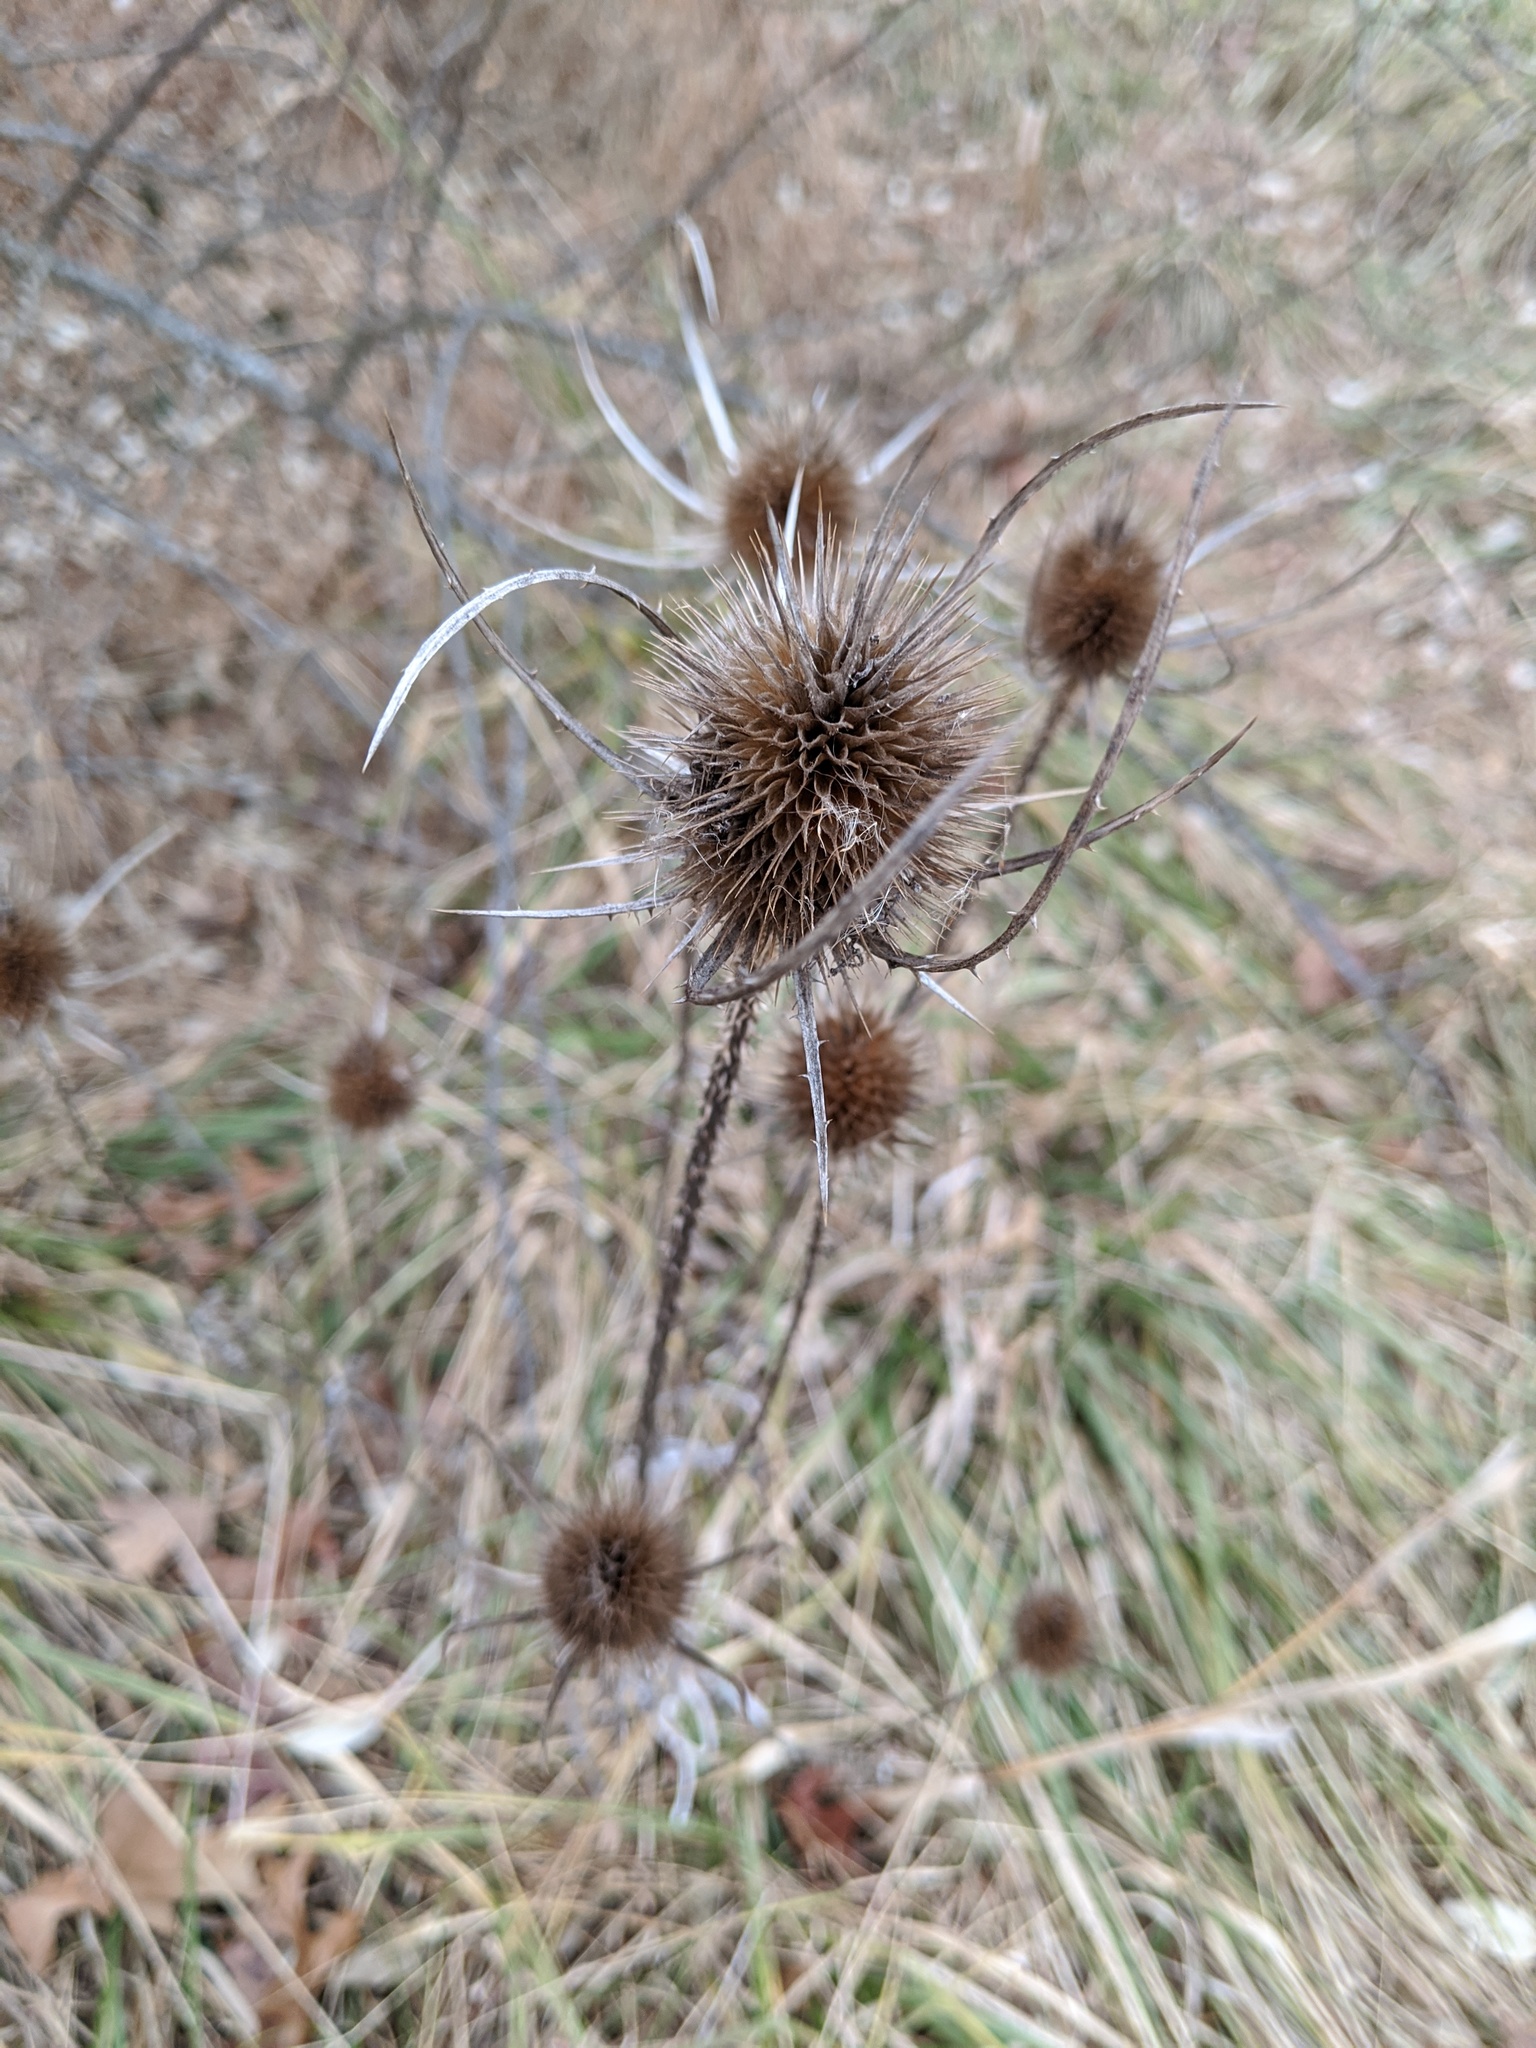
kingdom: Plantae
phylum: Tracheophyta
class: Magnoliopsida
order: Dipsacales
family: Caprifoliaceae
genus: Dipsacus
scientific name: Dipsacus fullonum
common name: Teasel
